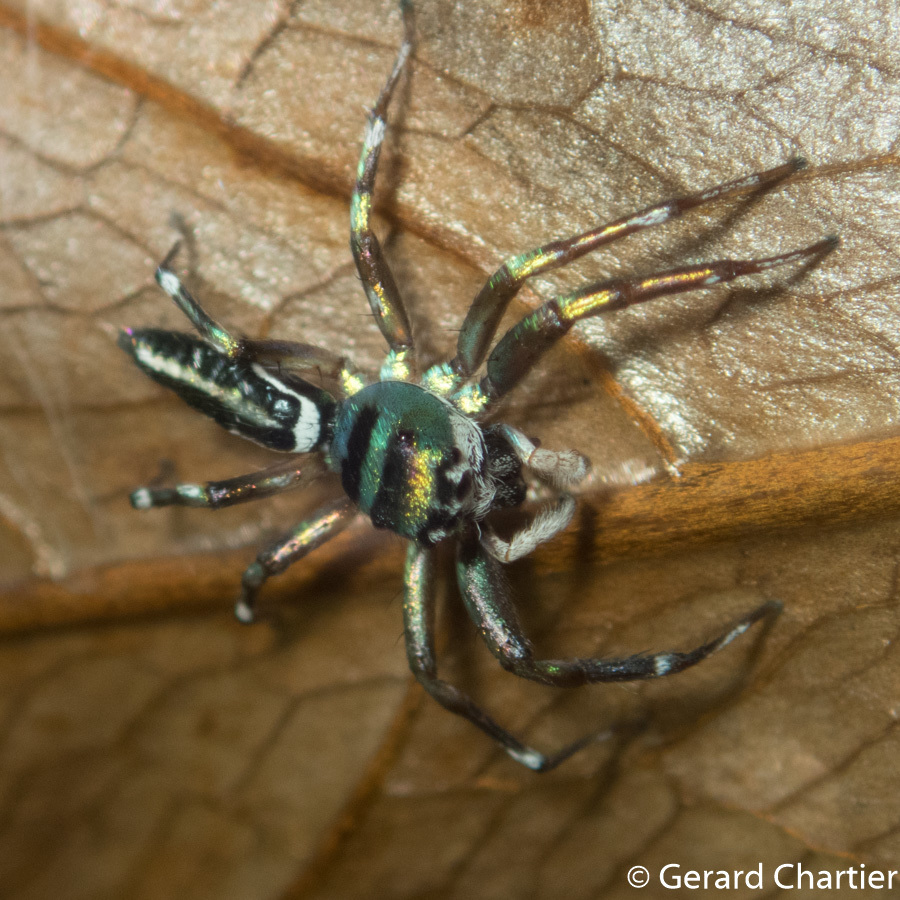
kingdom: Animalia
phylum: Arthropoda
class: Arachnida
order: Araneae
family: Salticidae
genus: Cosmophasis
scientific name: Cosmophasis thalassina
